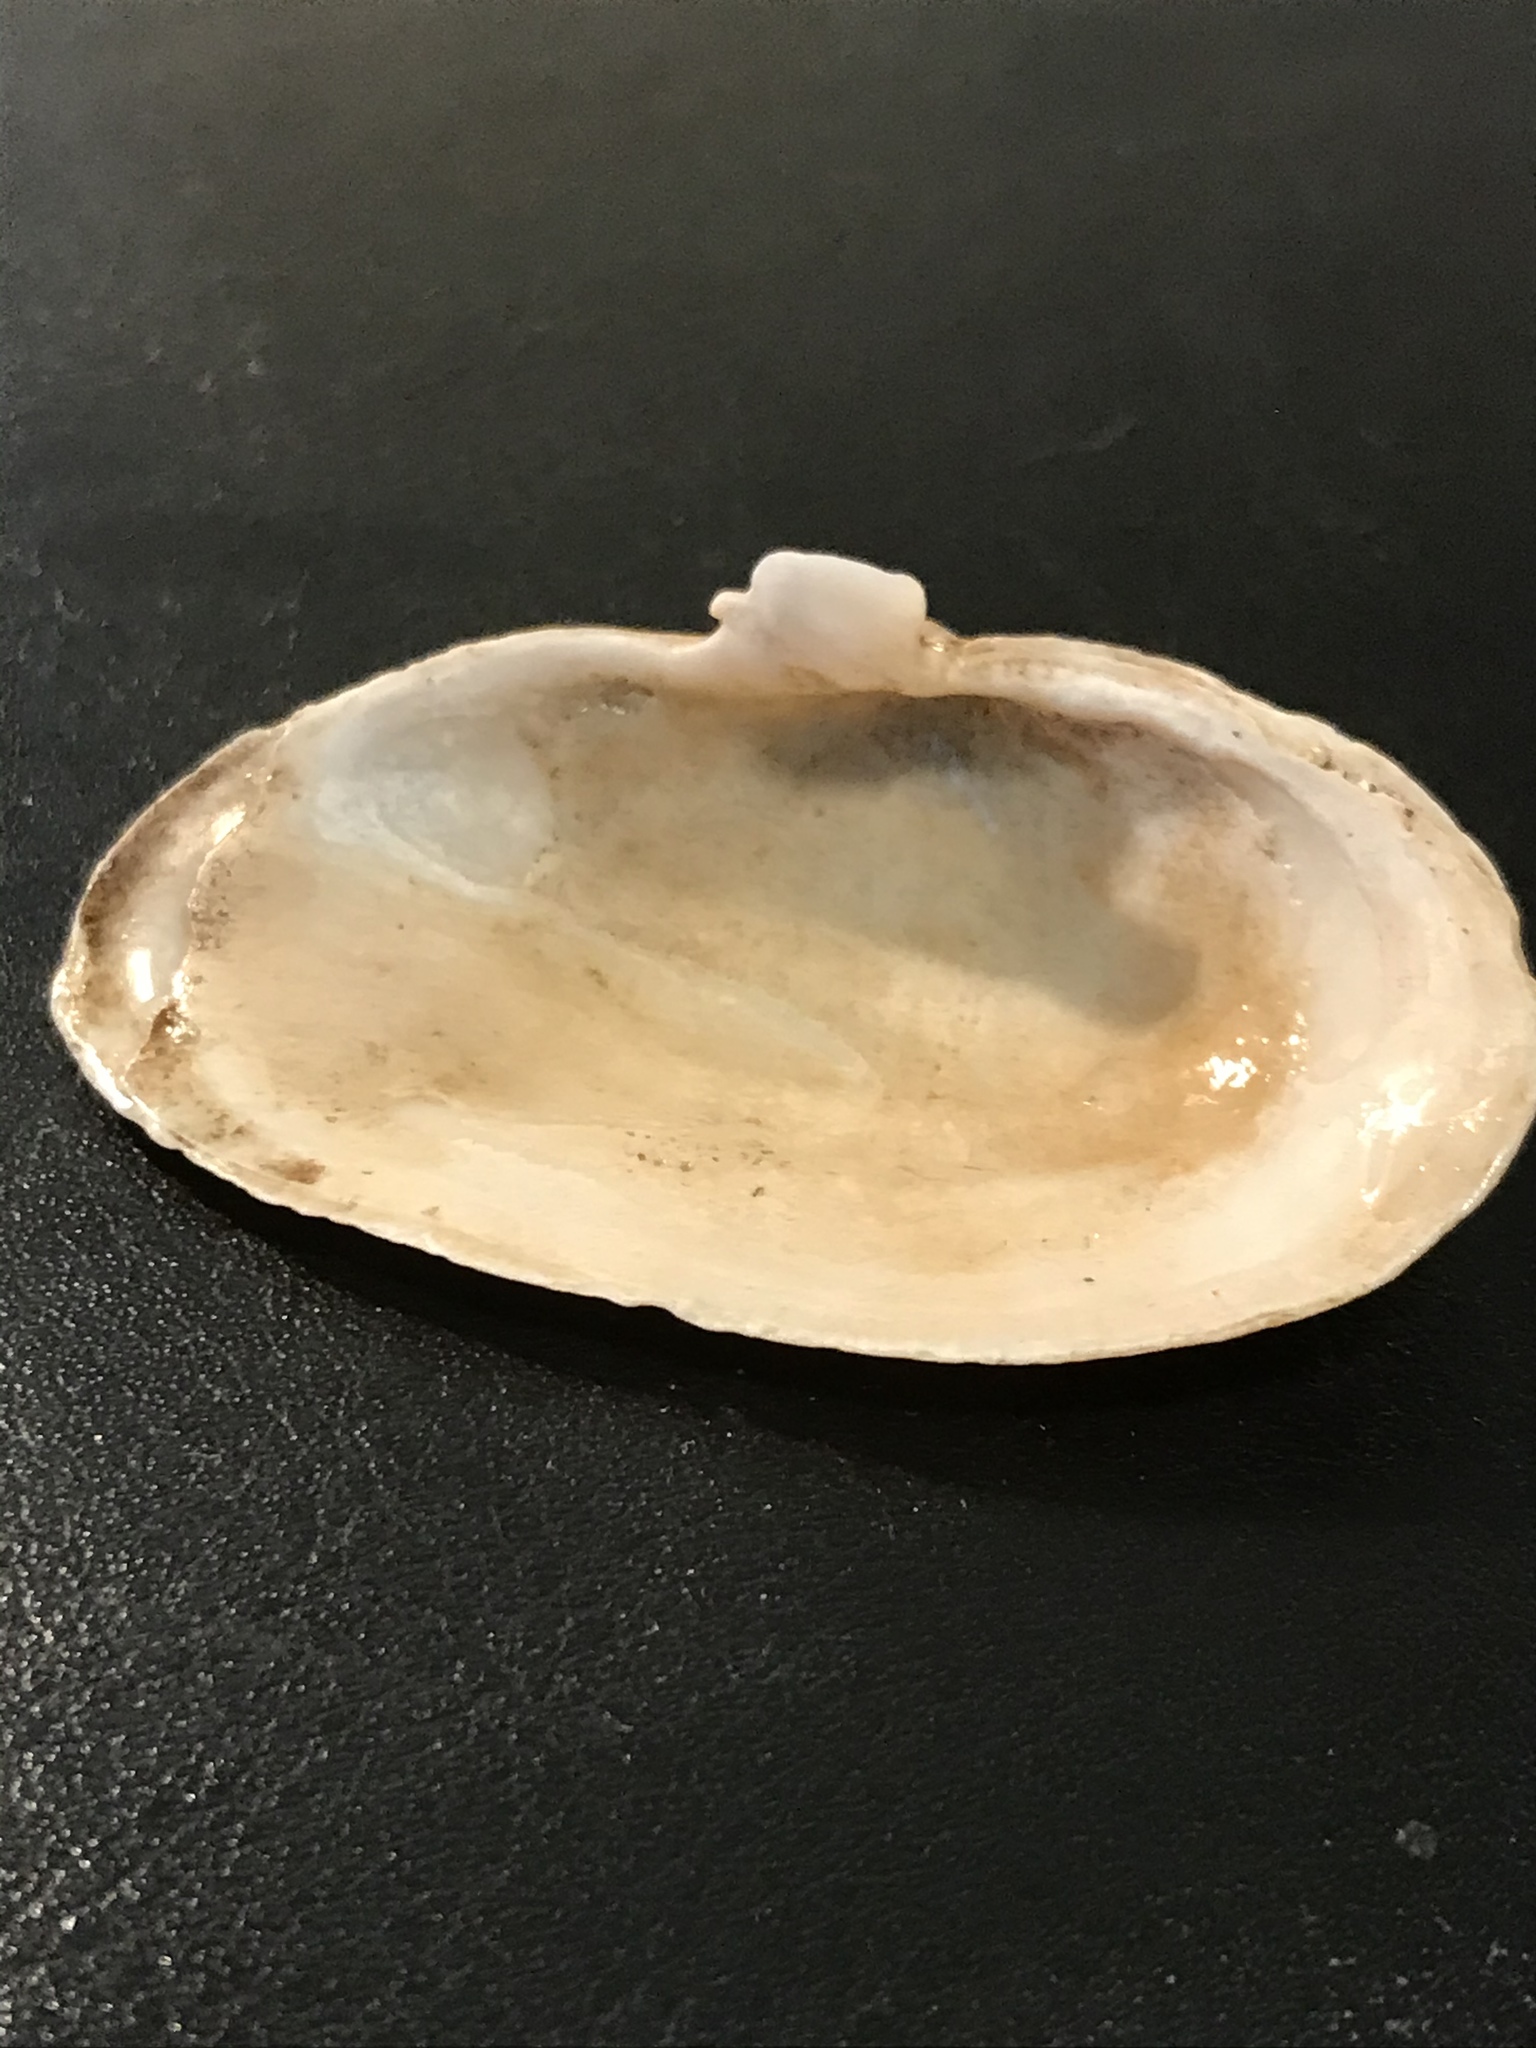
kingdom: Animalia
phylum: Mollusca
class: Bivalvia
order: Myida
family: Myidae
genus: Mya
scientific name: Mya arenaria
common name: Soft-shelled clam
